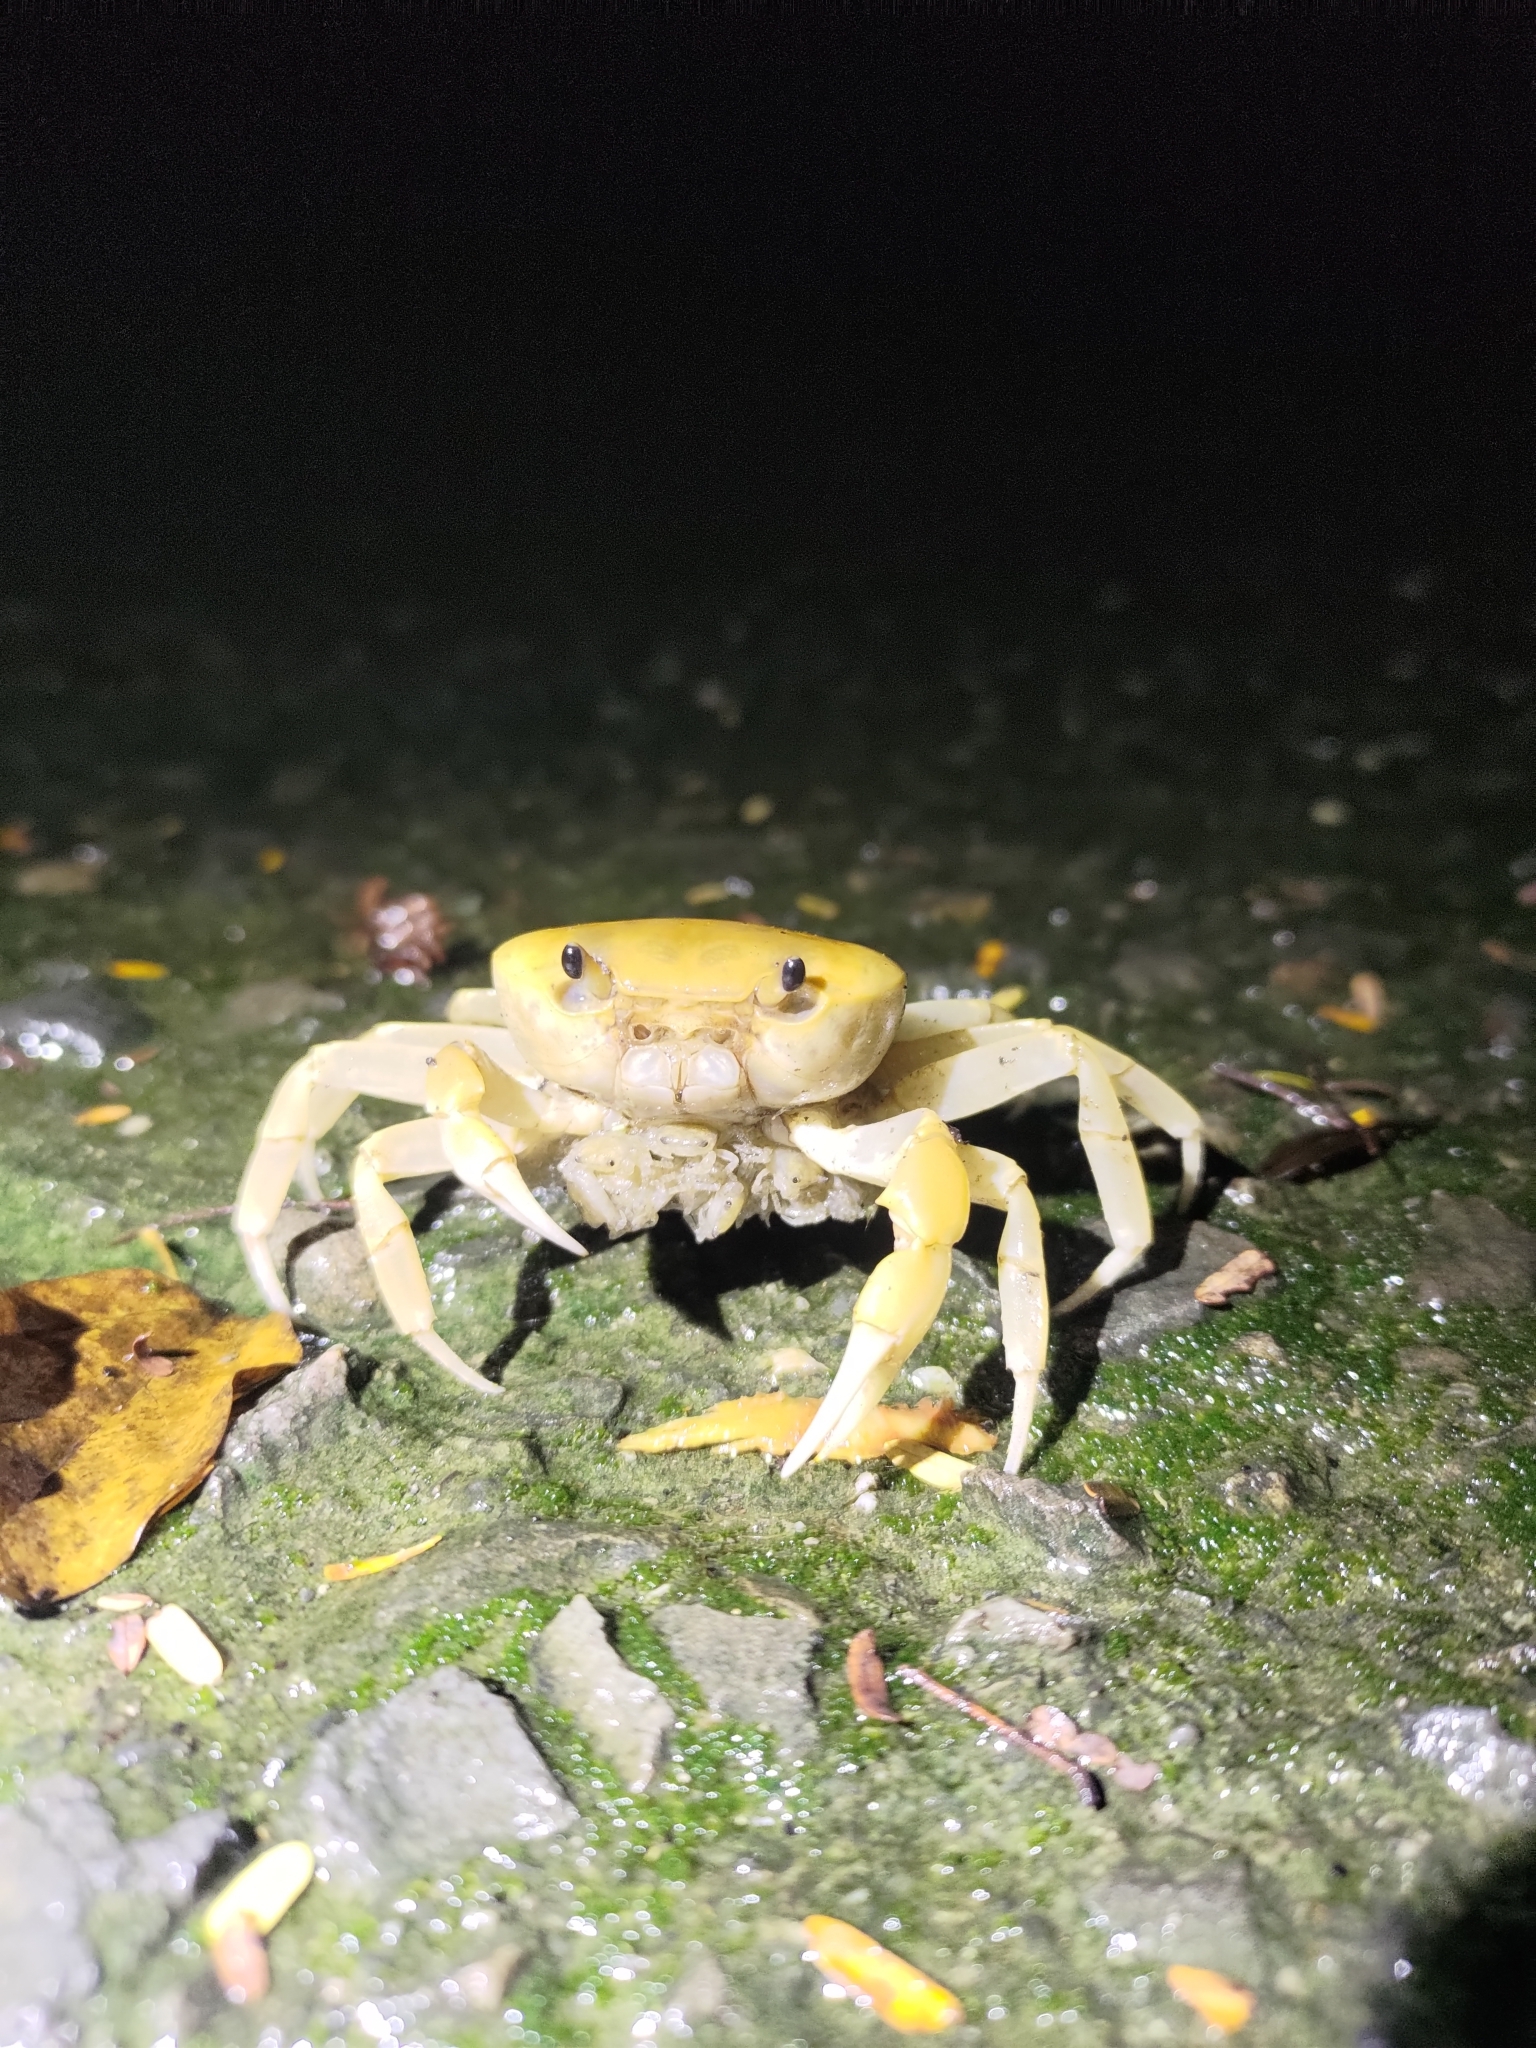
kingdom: Animalia
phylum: Arthropoda
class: Malacostraca
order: Decapoda
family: Potamidae
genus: Geothelphusa
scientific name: Geothelphusa makatao
